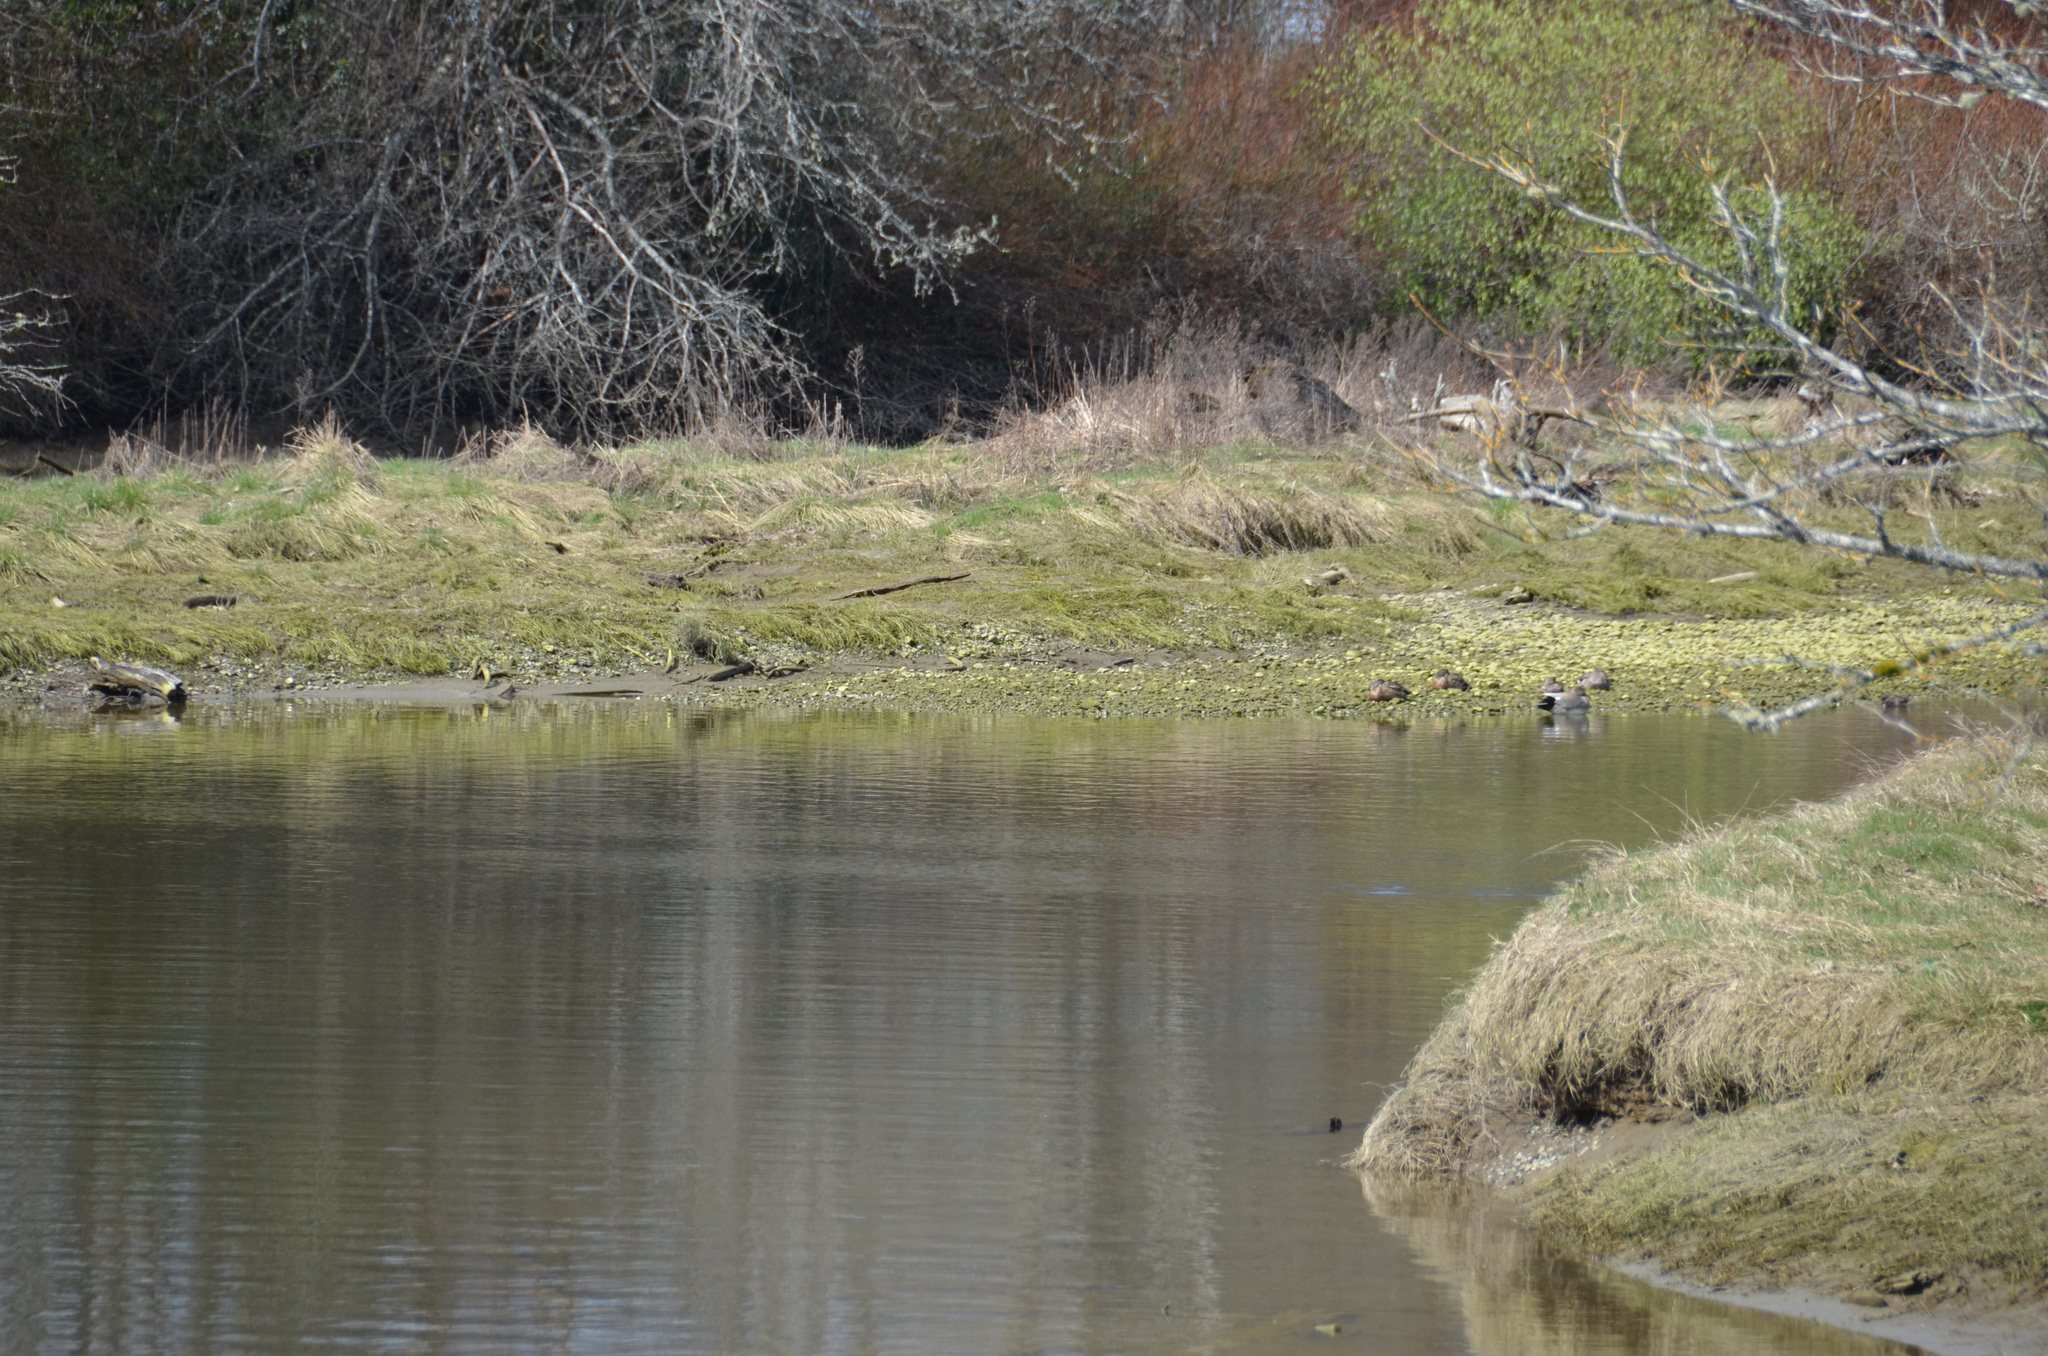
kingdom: Animalia
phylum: Chordata
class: Aves
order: Anseriformes
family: Anatidae
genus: Mareca
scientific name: Mareca strepera
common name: Gadwall
